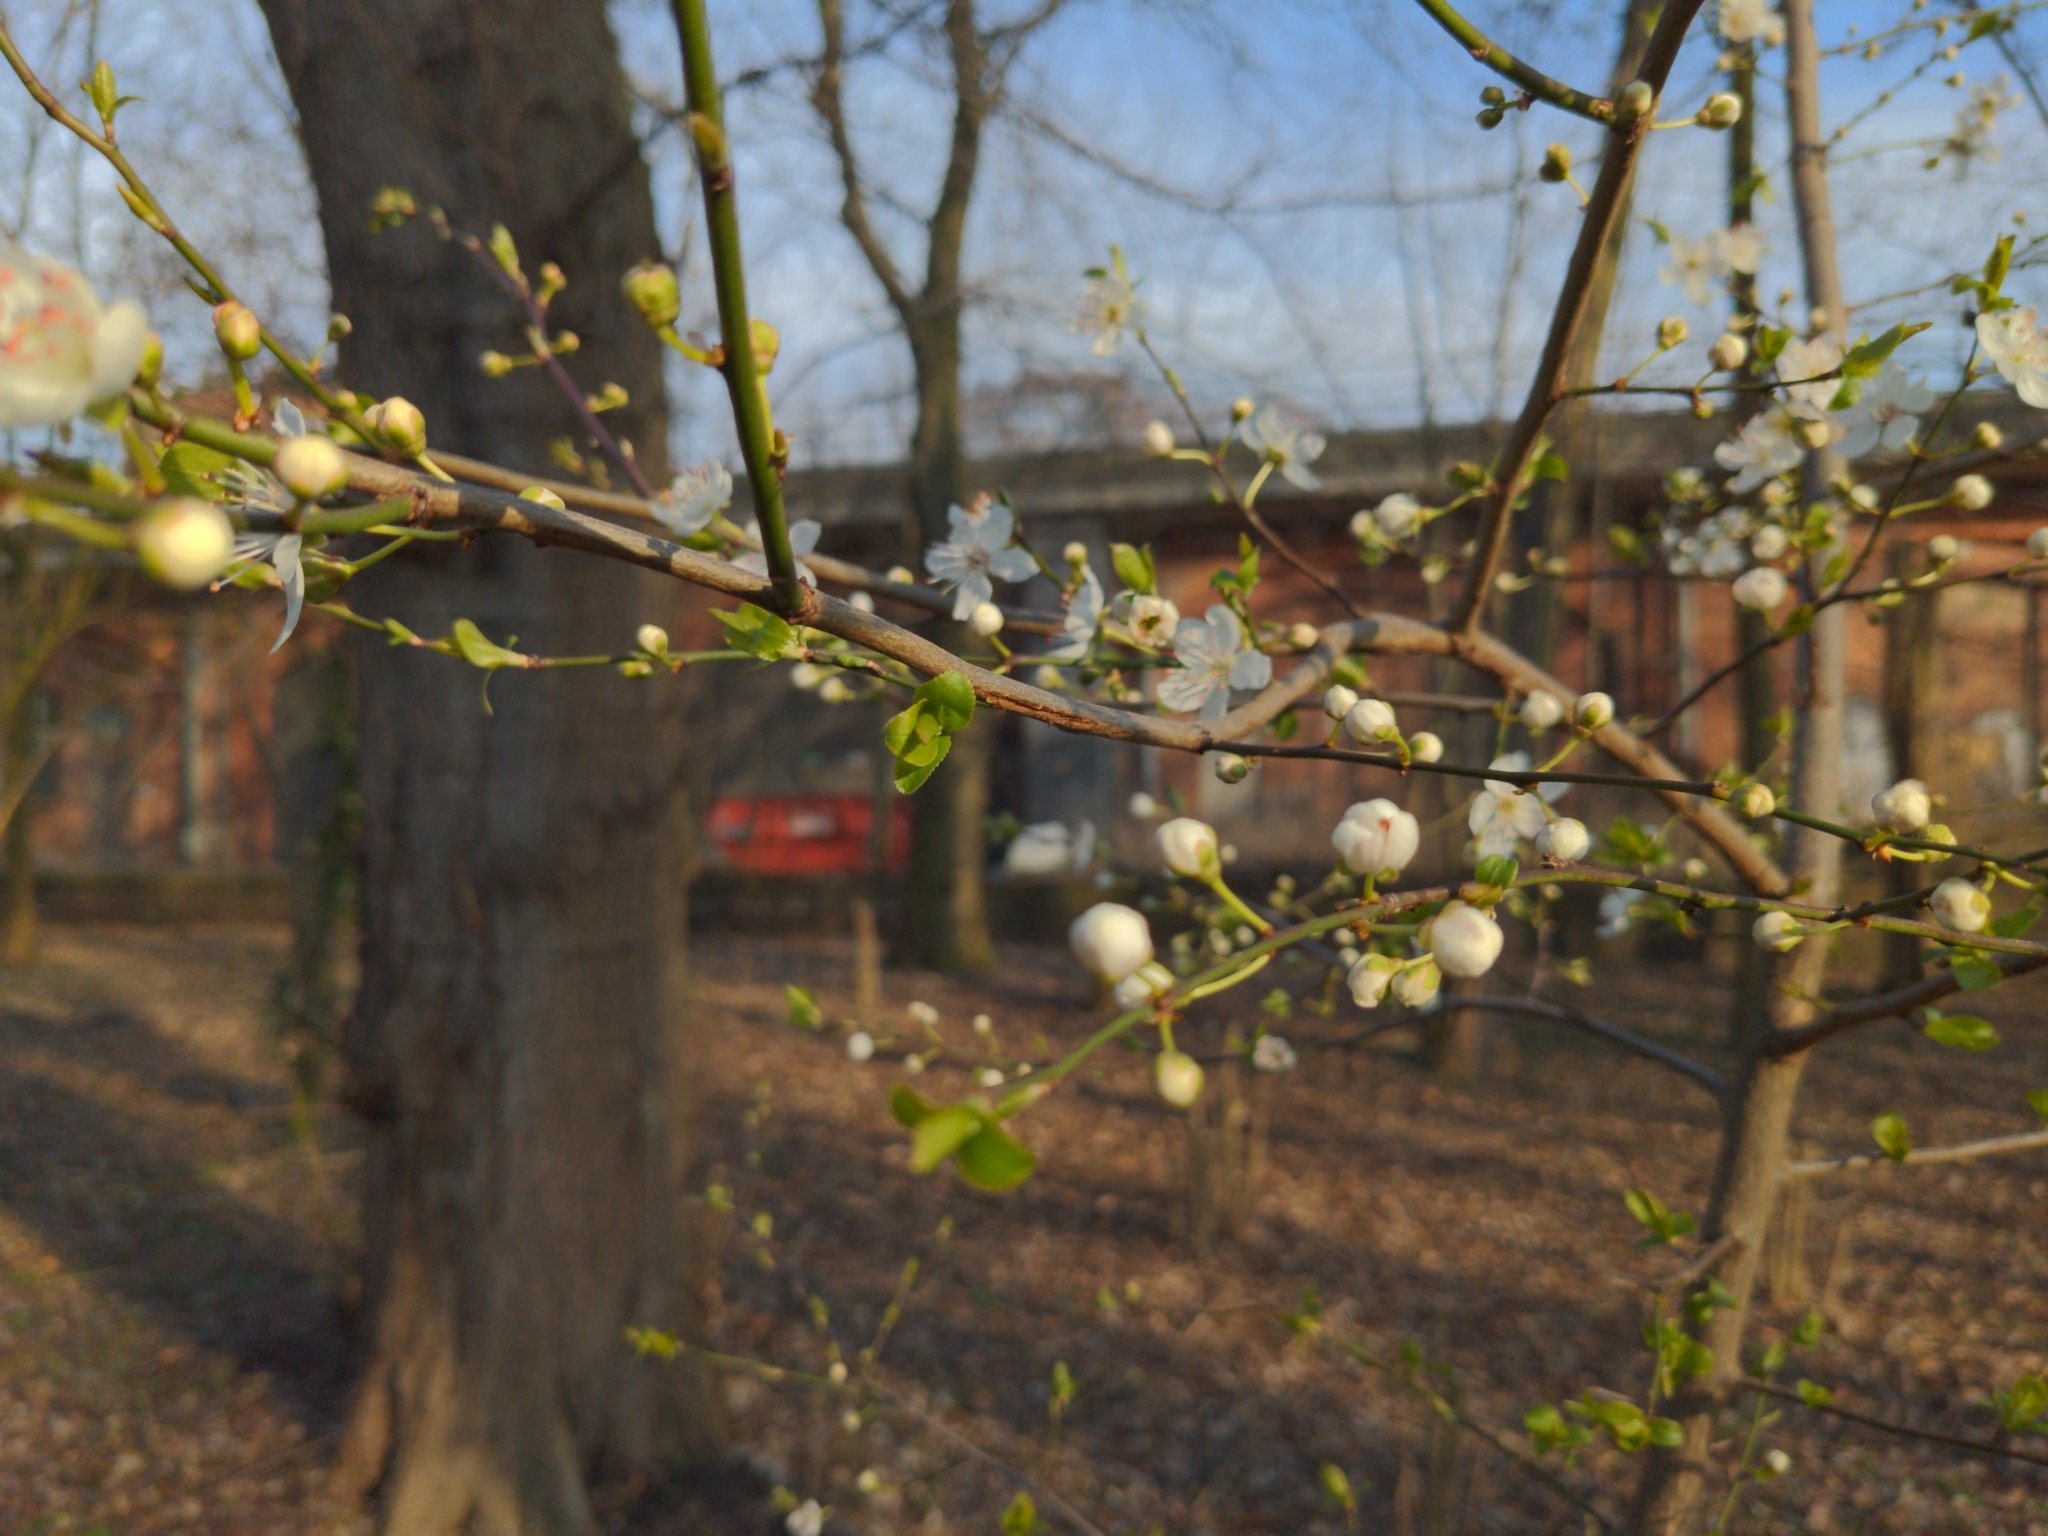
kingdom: Plantae
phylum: Tracheophyta
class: Magnoliopsida
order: Rosales
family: Rosaceae
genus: Prunus
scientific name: Prunus cerasifera
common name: Cherry plum
